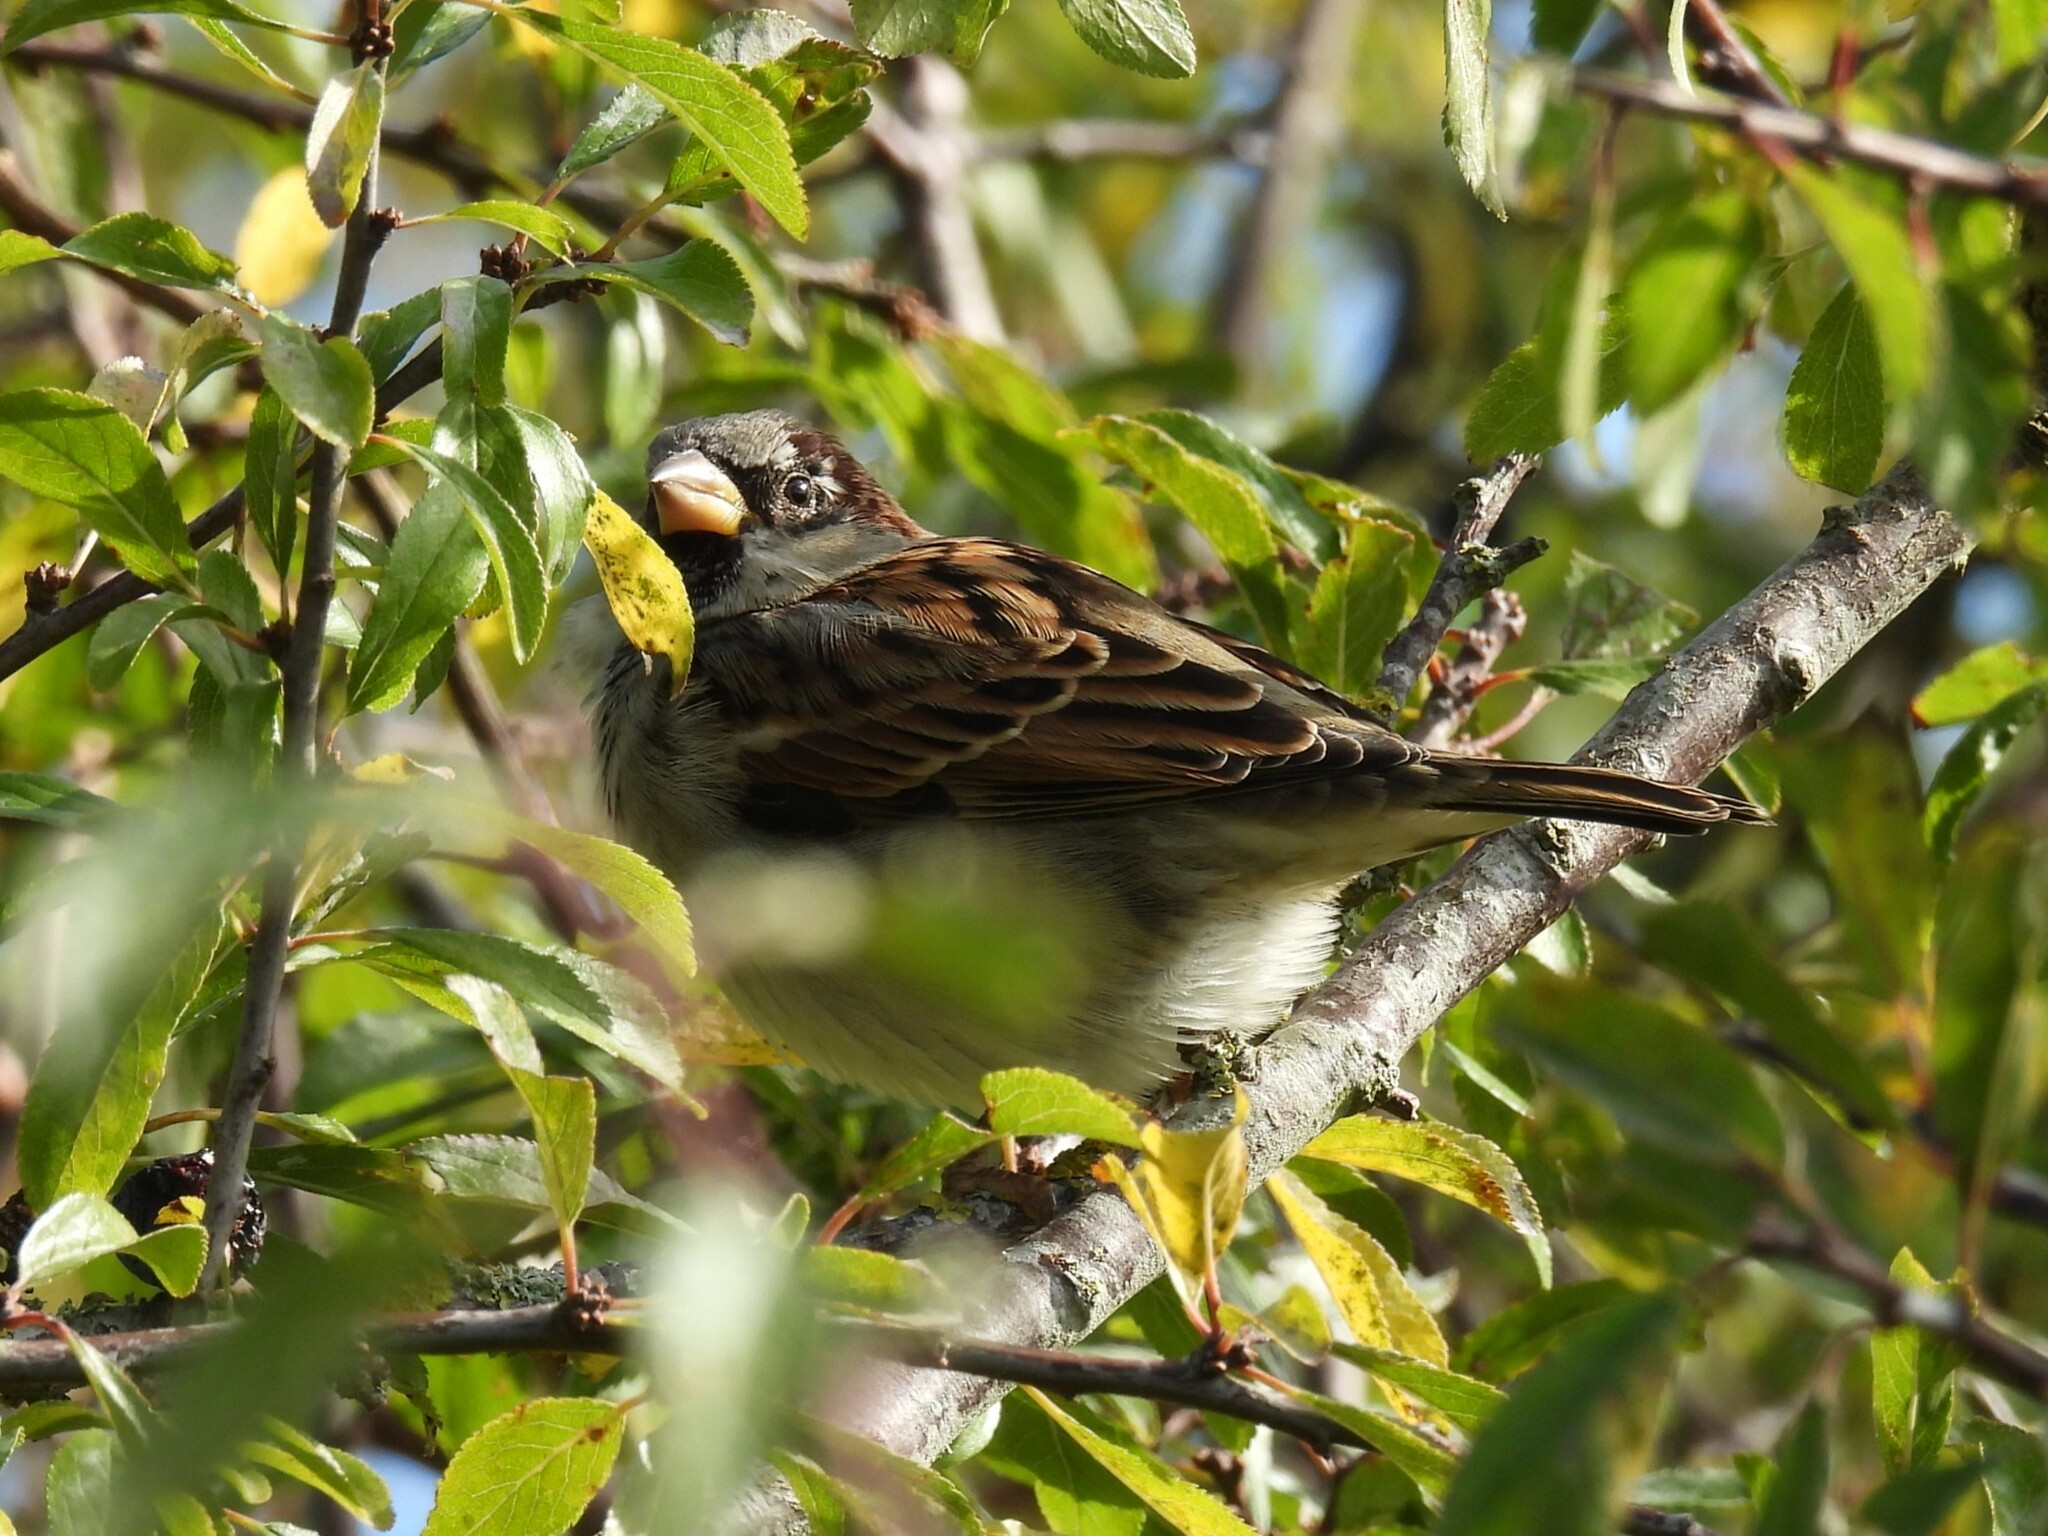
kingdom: Animalia
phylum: Chordata
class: Aves
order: Passeriformes
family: Passeridae
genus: Passer
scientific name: Passer domesticus
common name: House sparrow
